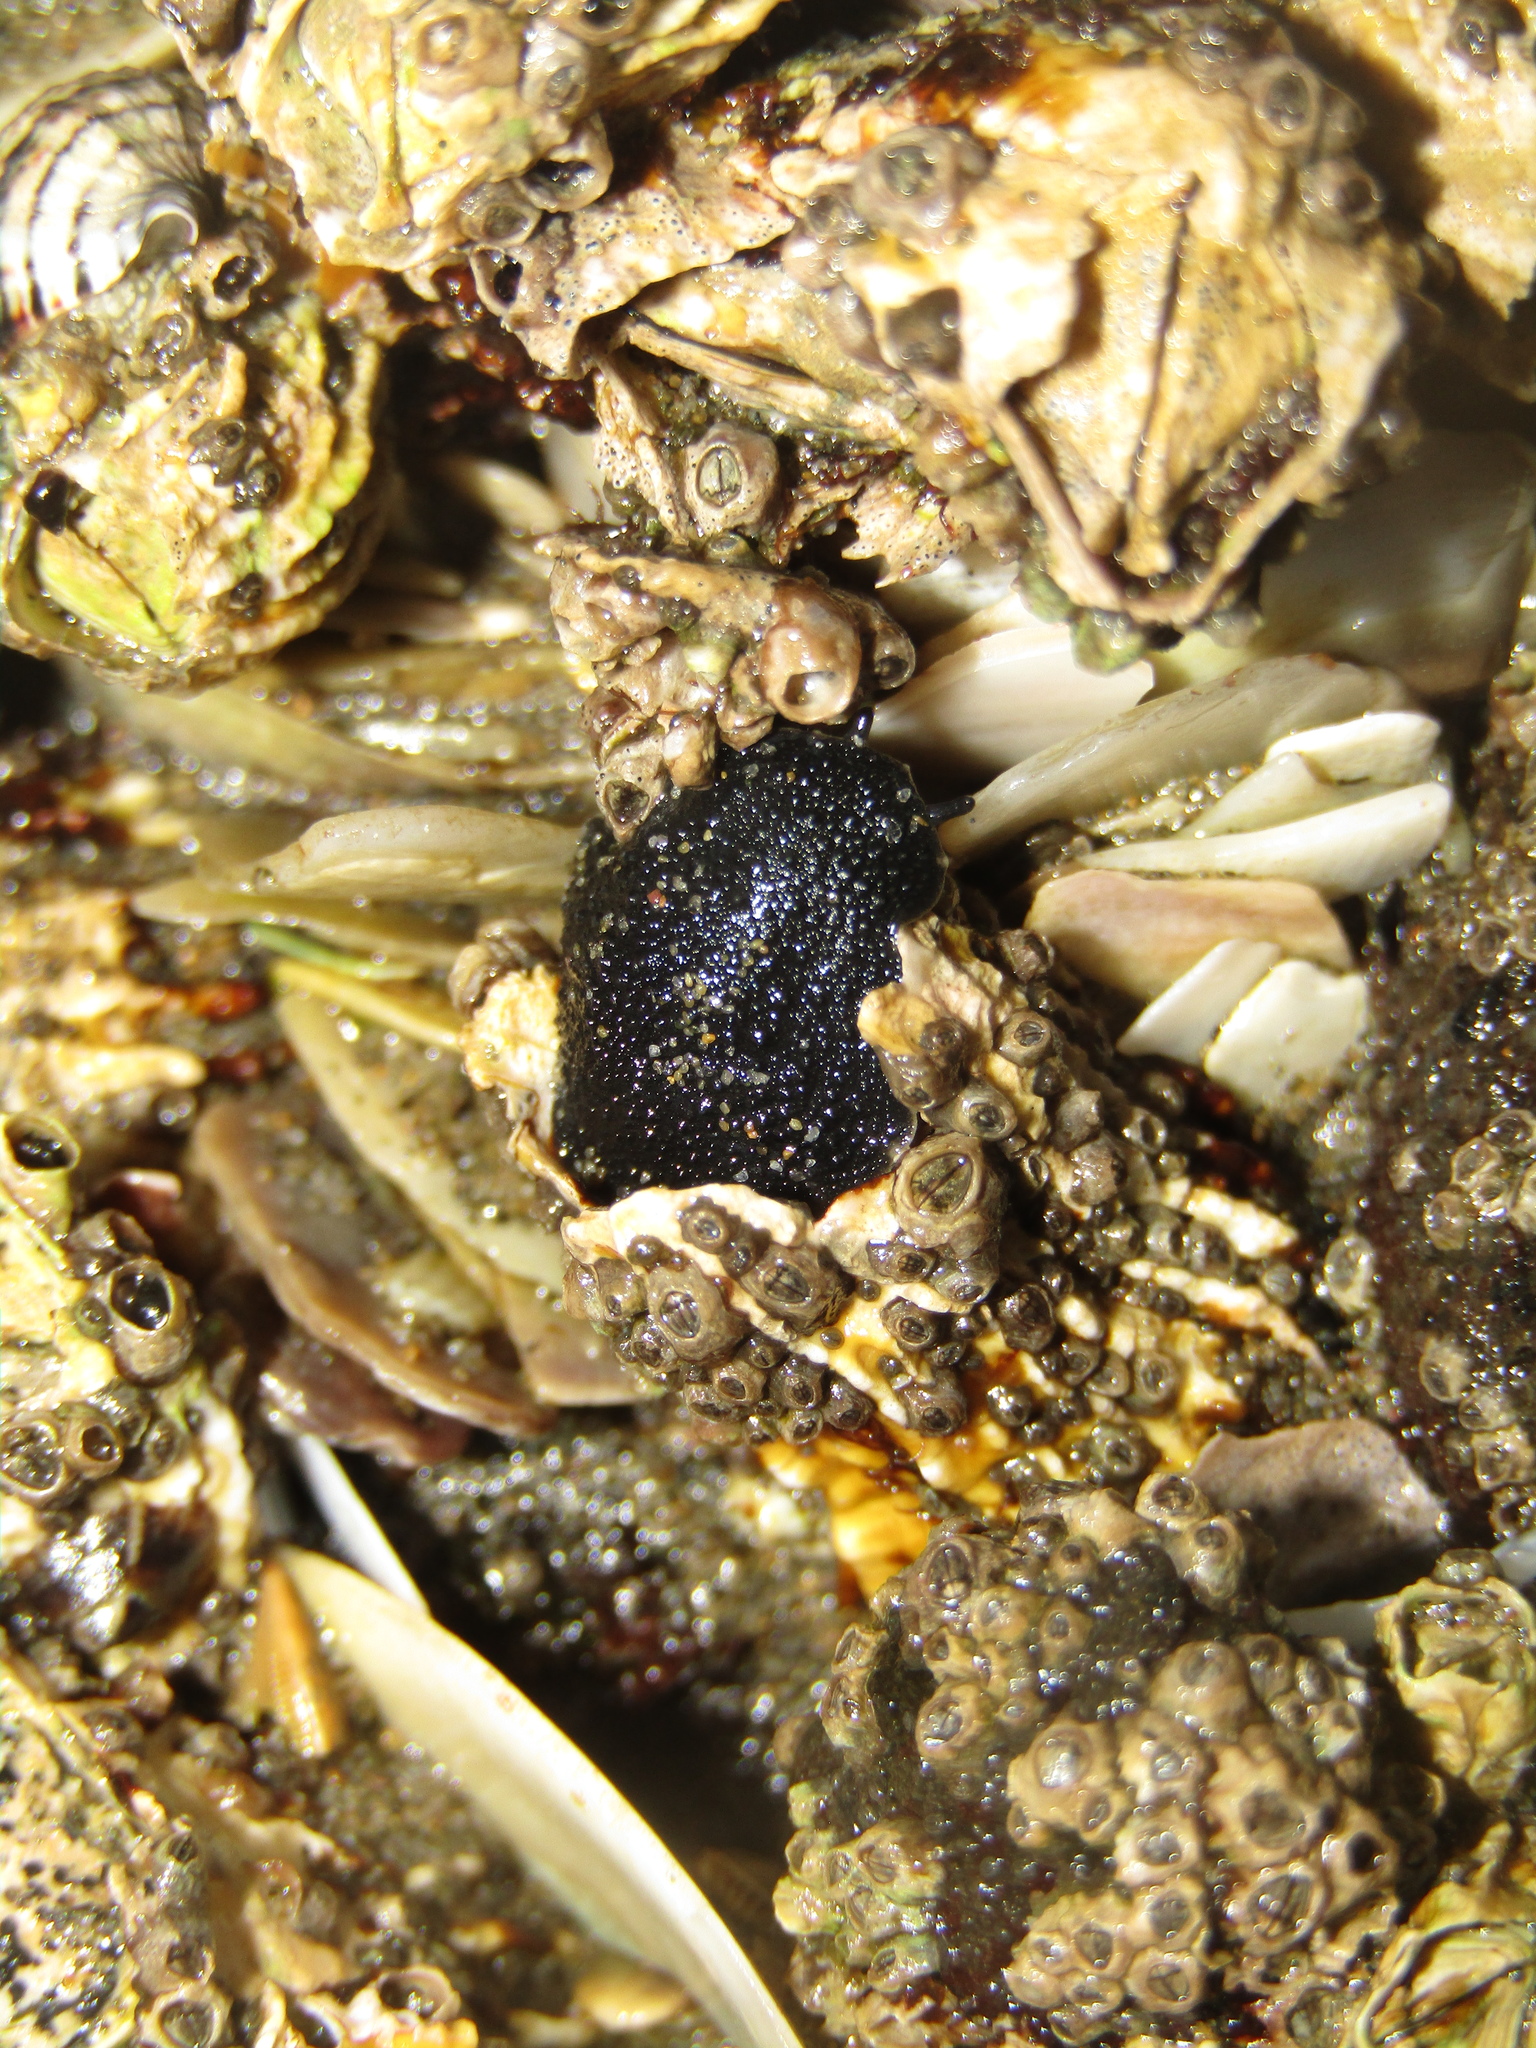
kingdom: Animalia
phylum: Mollusca
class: Gastropoda
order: Systellommatophora
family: Onchidiidae
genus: Onchidella
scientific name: Onchidella nigricans
